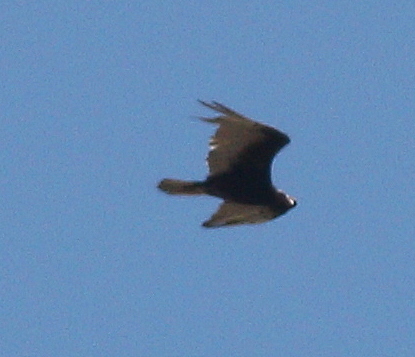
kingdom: Animalia
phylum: Chordata
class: Aves
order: Accipitriformes
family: Cathartidae
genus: Cathartes
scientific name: Cathartes aura
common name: Turkey vulture
